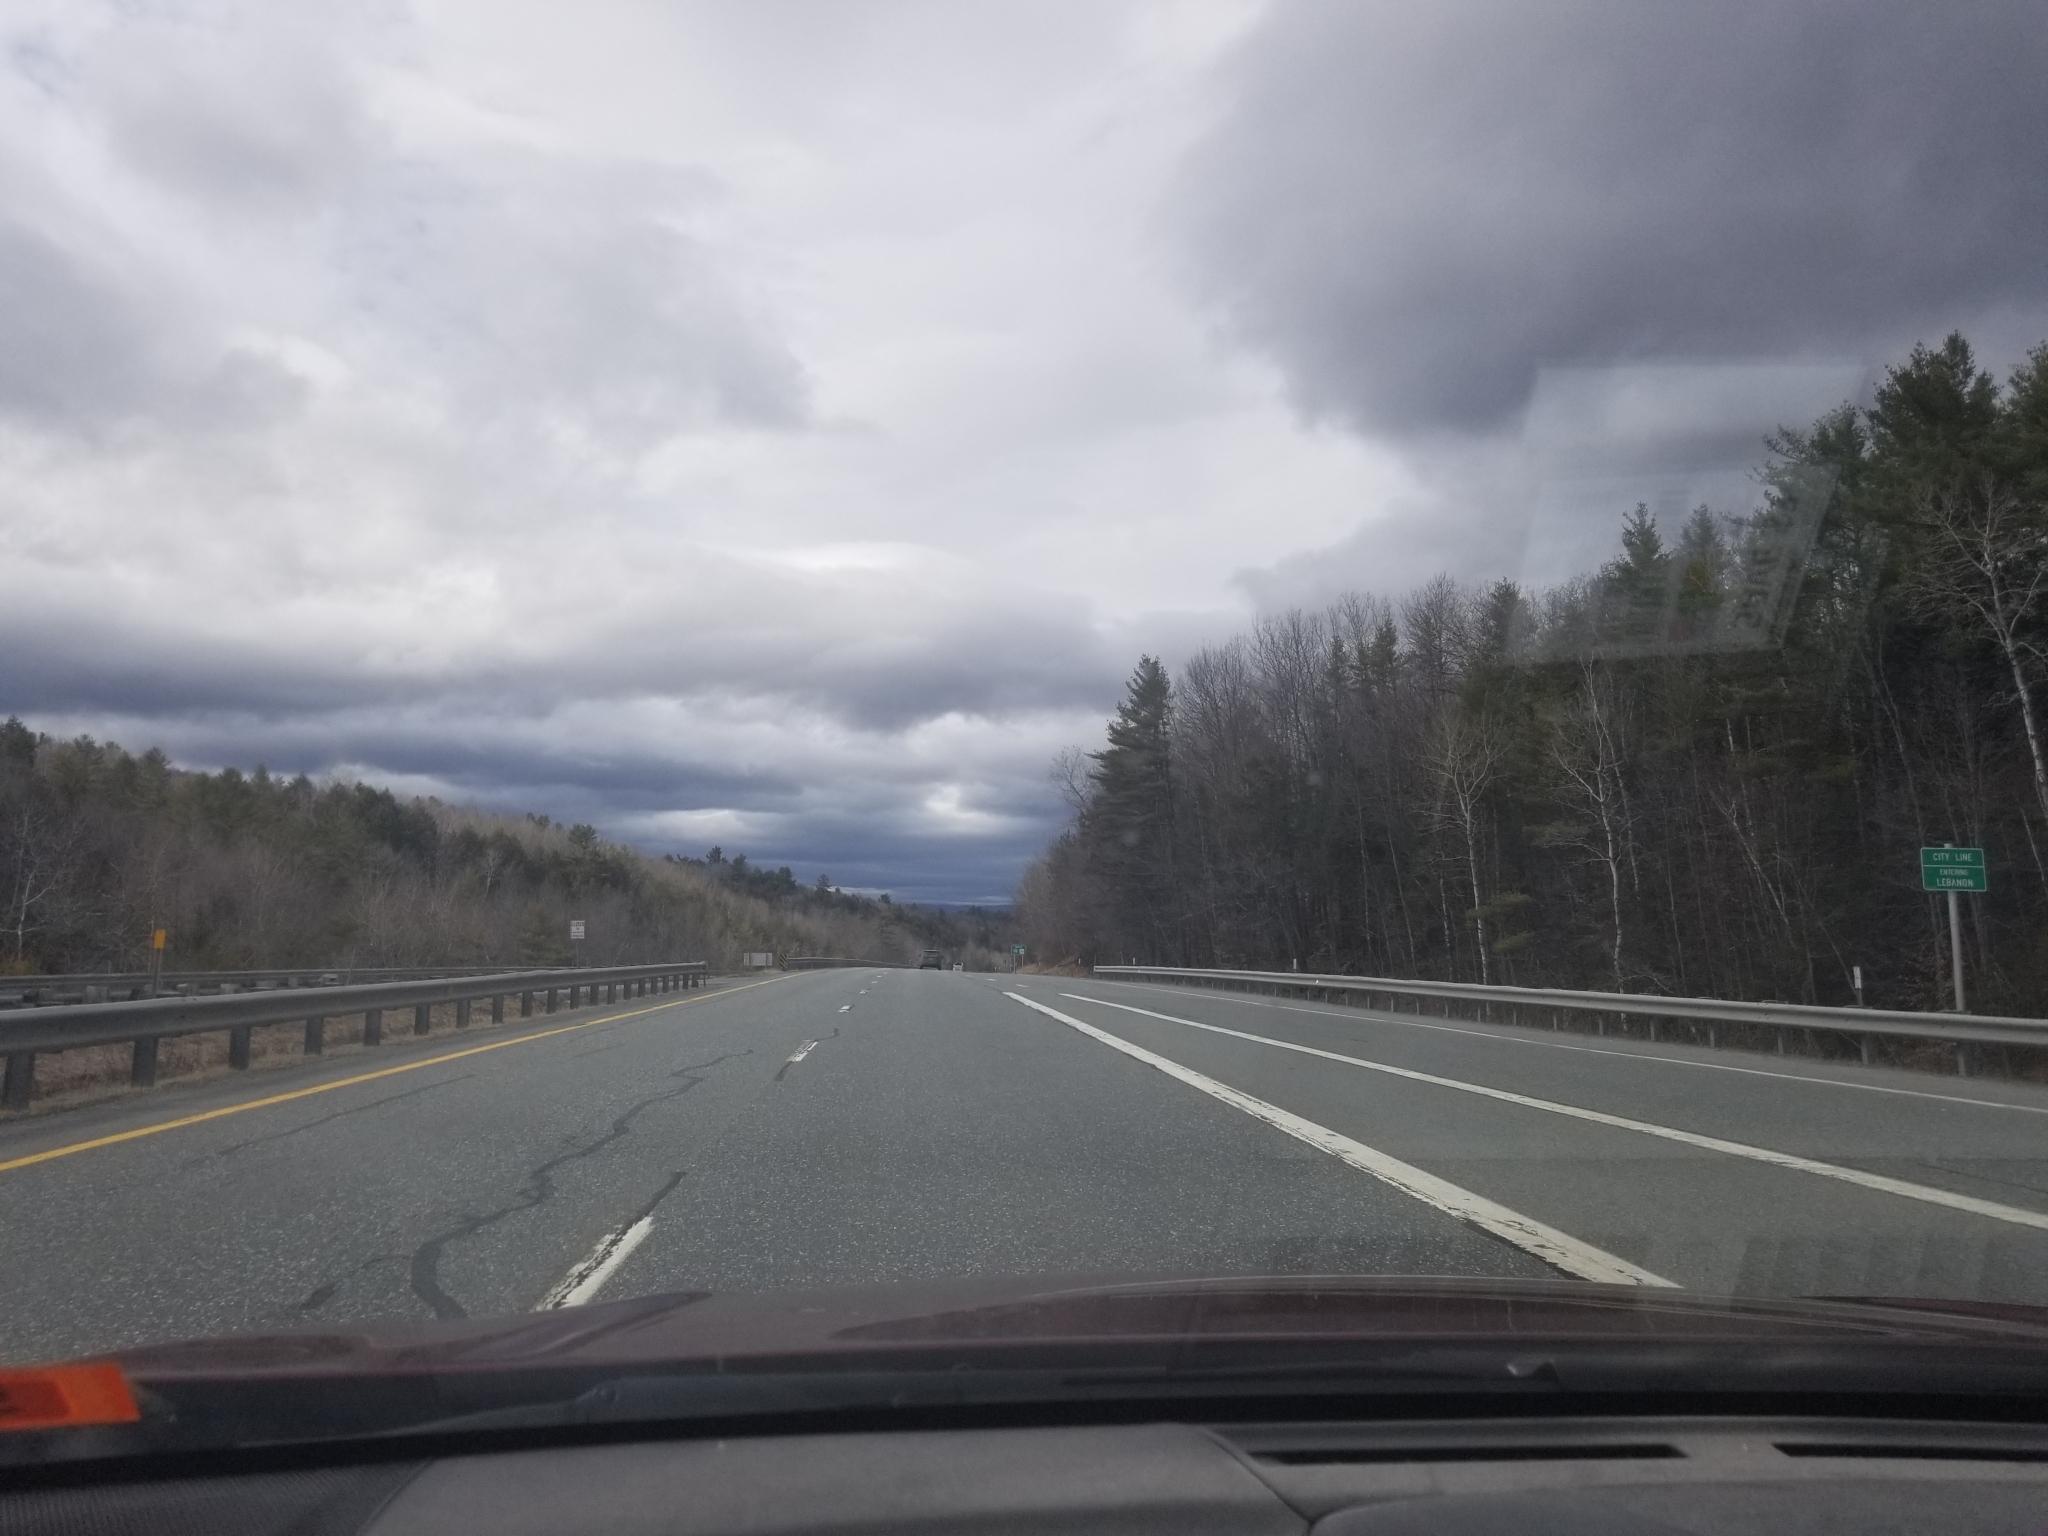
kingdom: Plantae
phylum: Tracheophyta
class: Pinopsida
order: Pinales
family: Pinaceae
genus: Pinus
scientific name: Pinus strobus
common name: Weymouth pine
